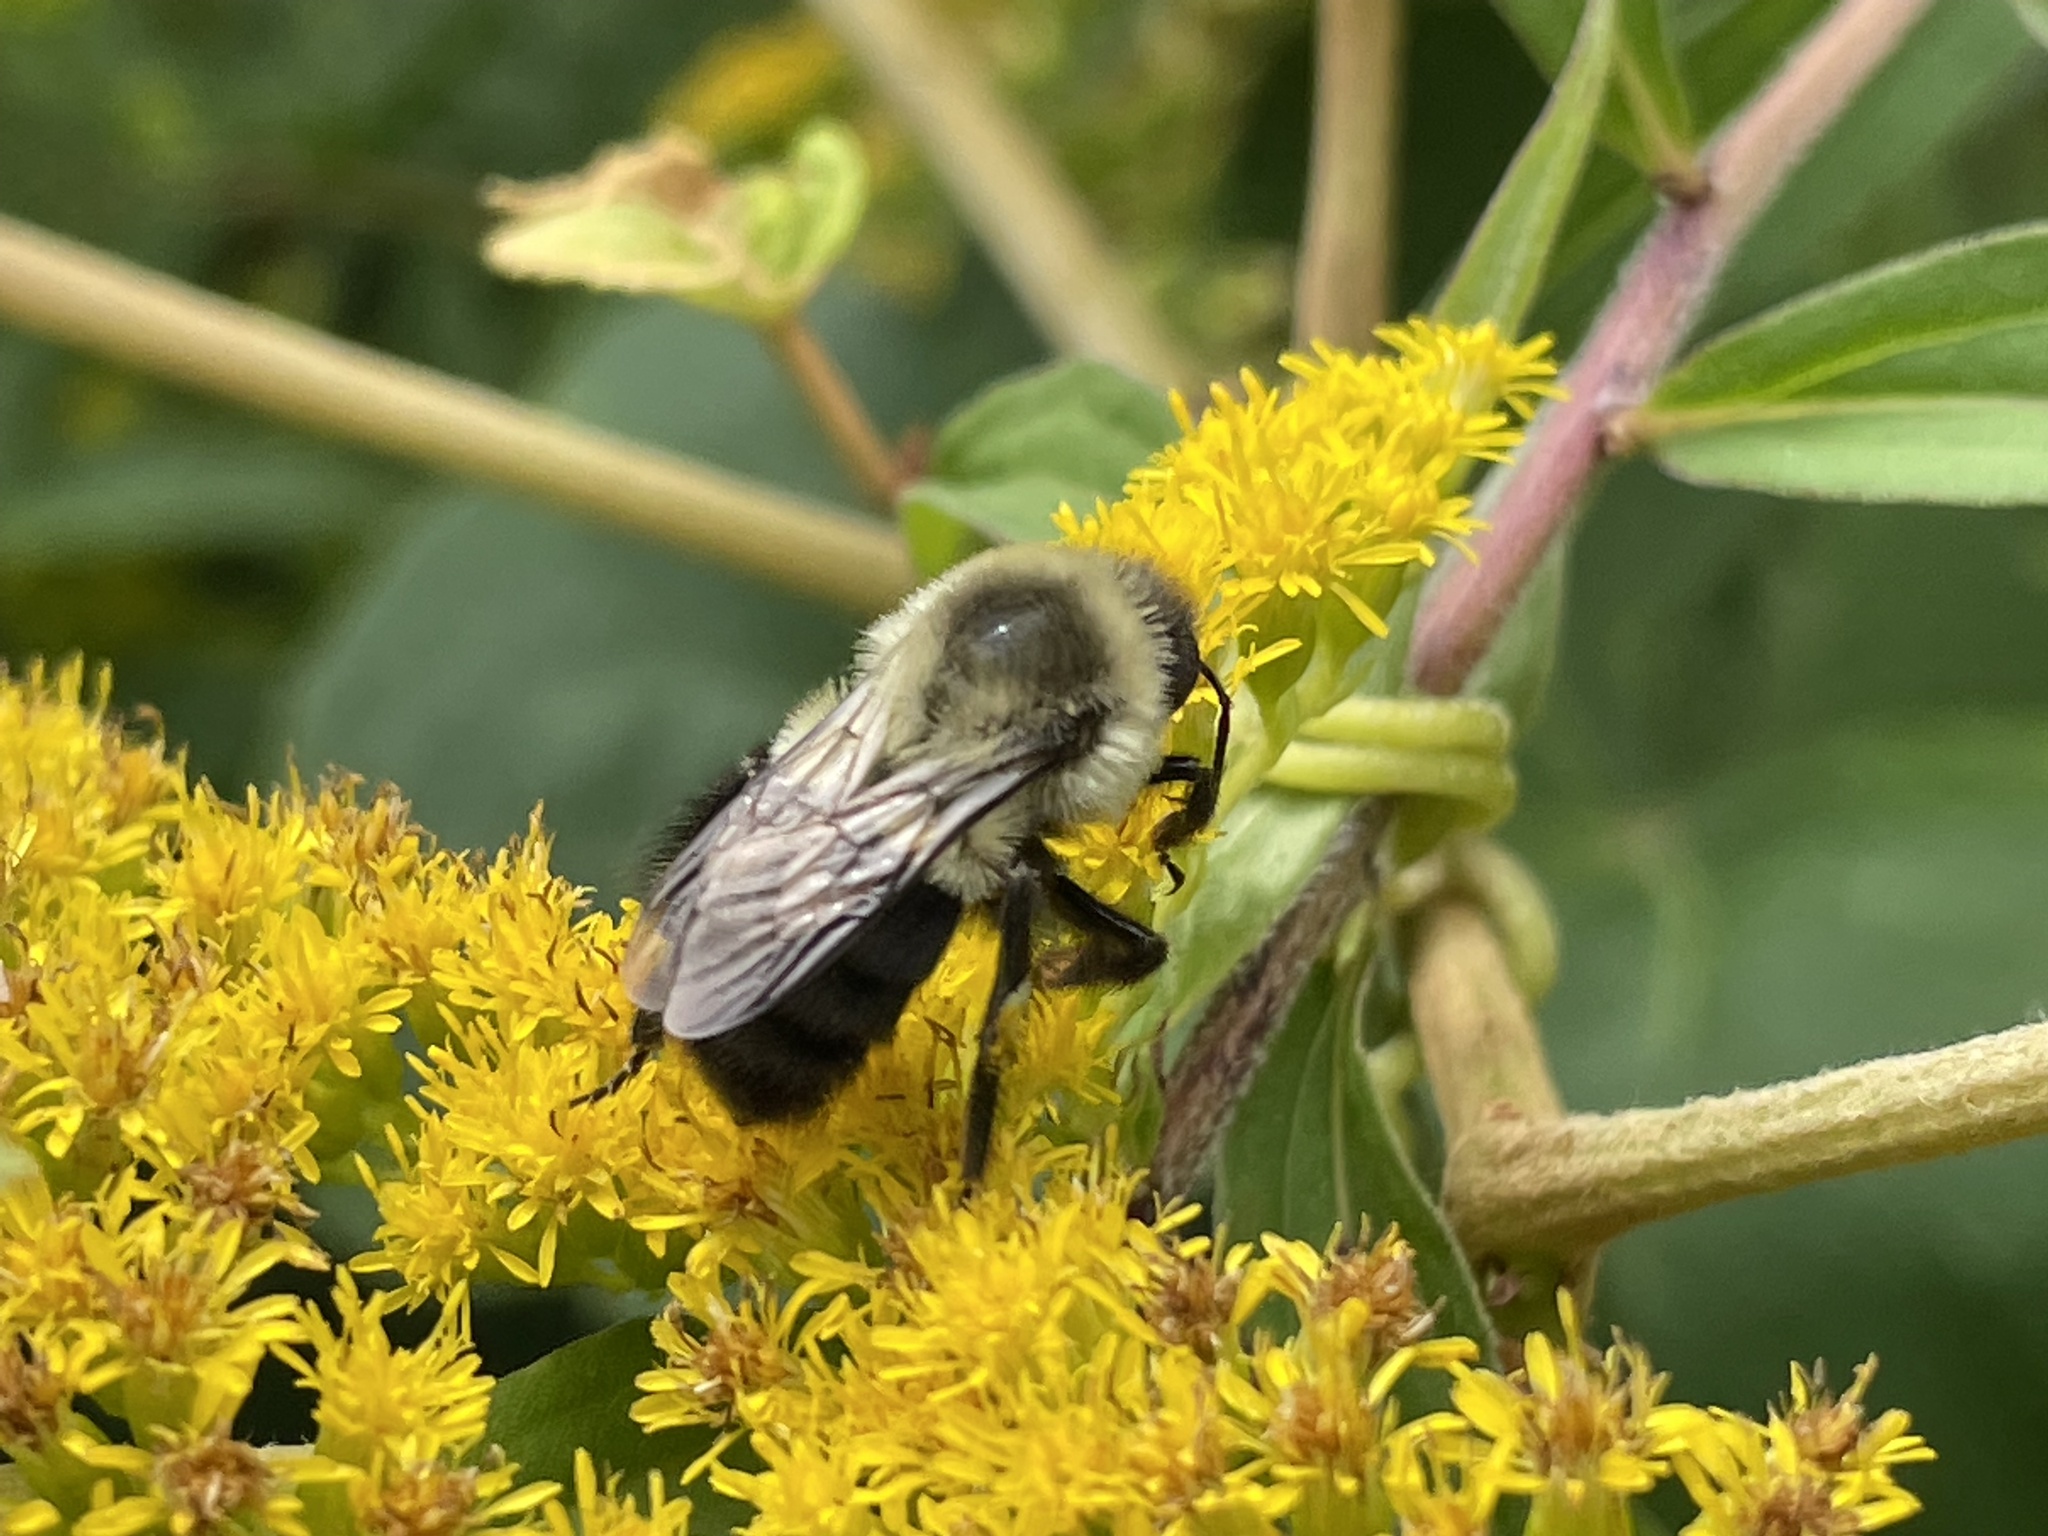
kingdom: Animalia
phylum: Arthropoda
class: Insecta
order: Hymenoptera
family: Apidae
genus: Bombus
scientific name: Bombus impatiens
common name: Common eastern bumble bee
